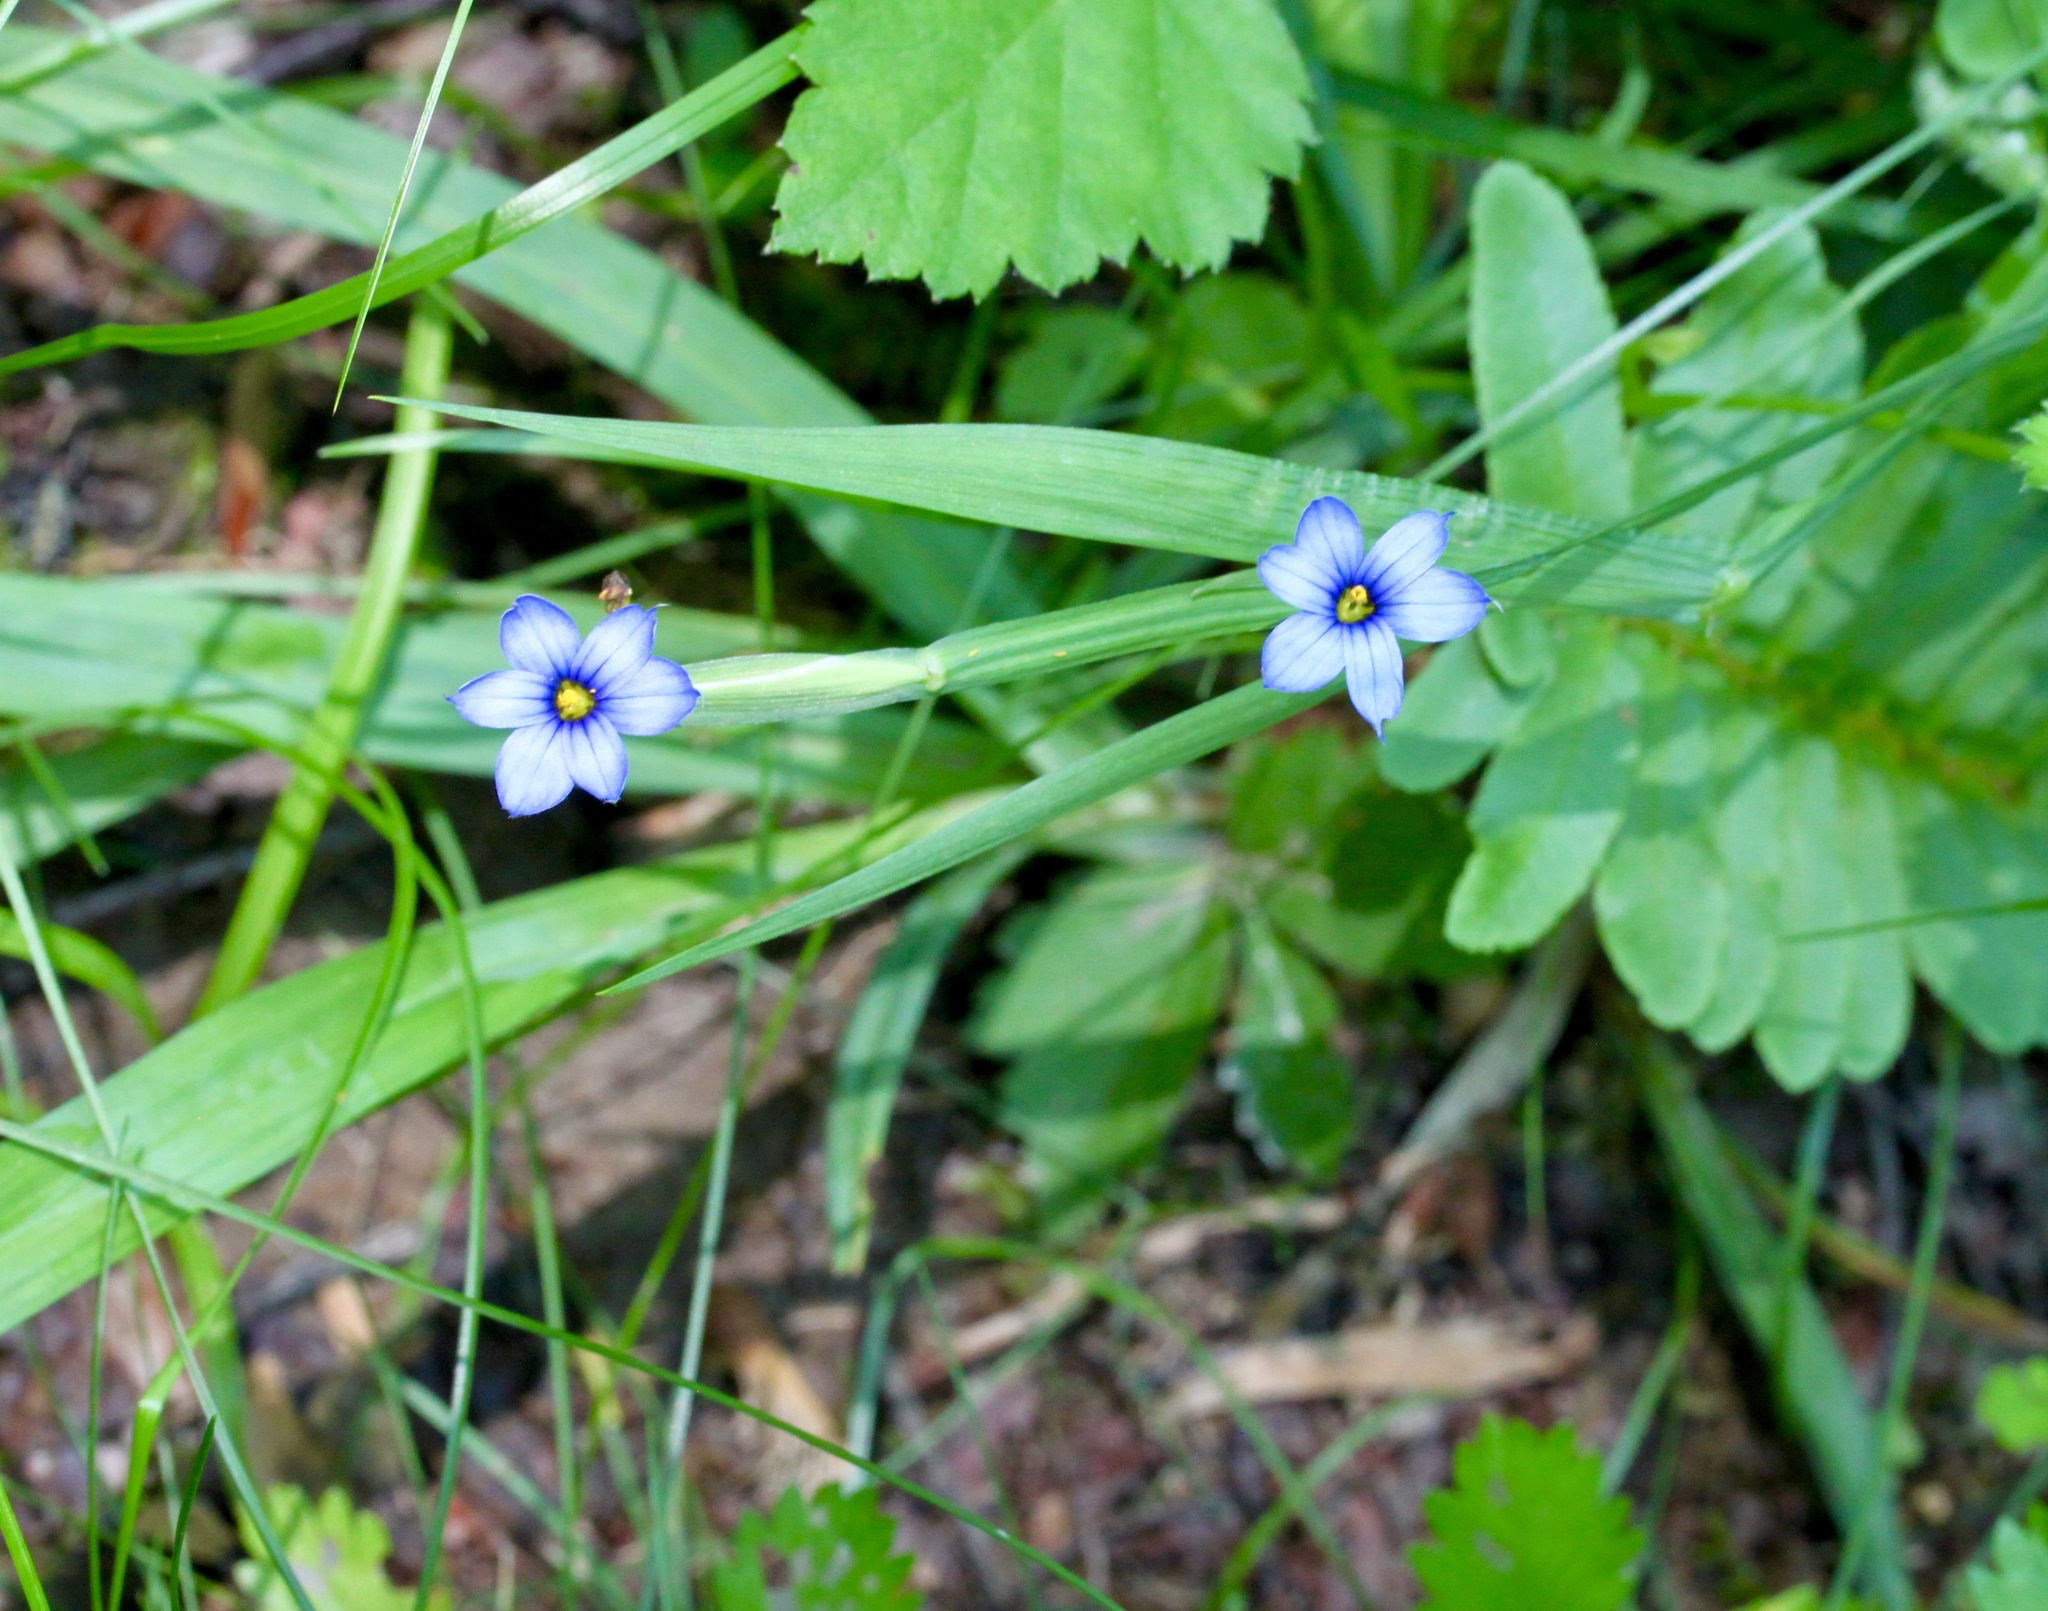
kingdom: Plantae
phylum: Tracheophyta
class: Liliopsida
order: Asparagales
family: Iridaceae
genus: Sisyrinchium
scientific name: Sisyrinchium angustifolium
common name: Narrow-leaf blue-eyed-grass
